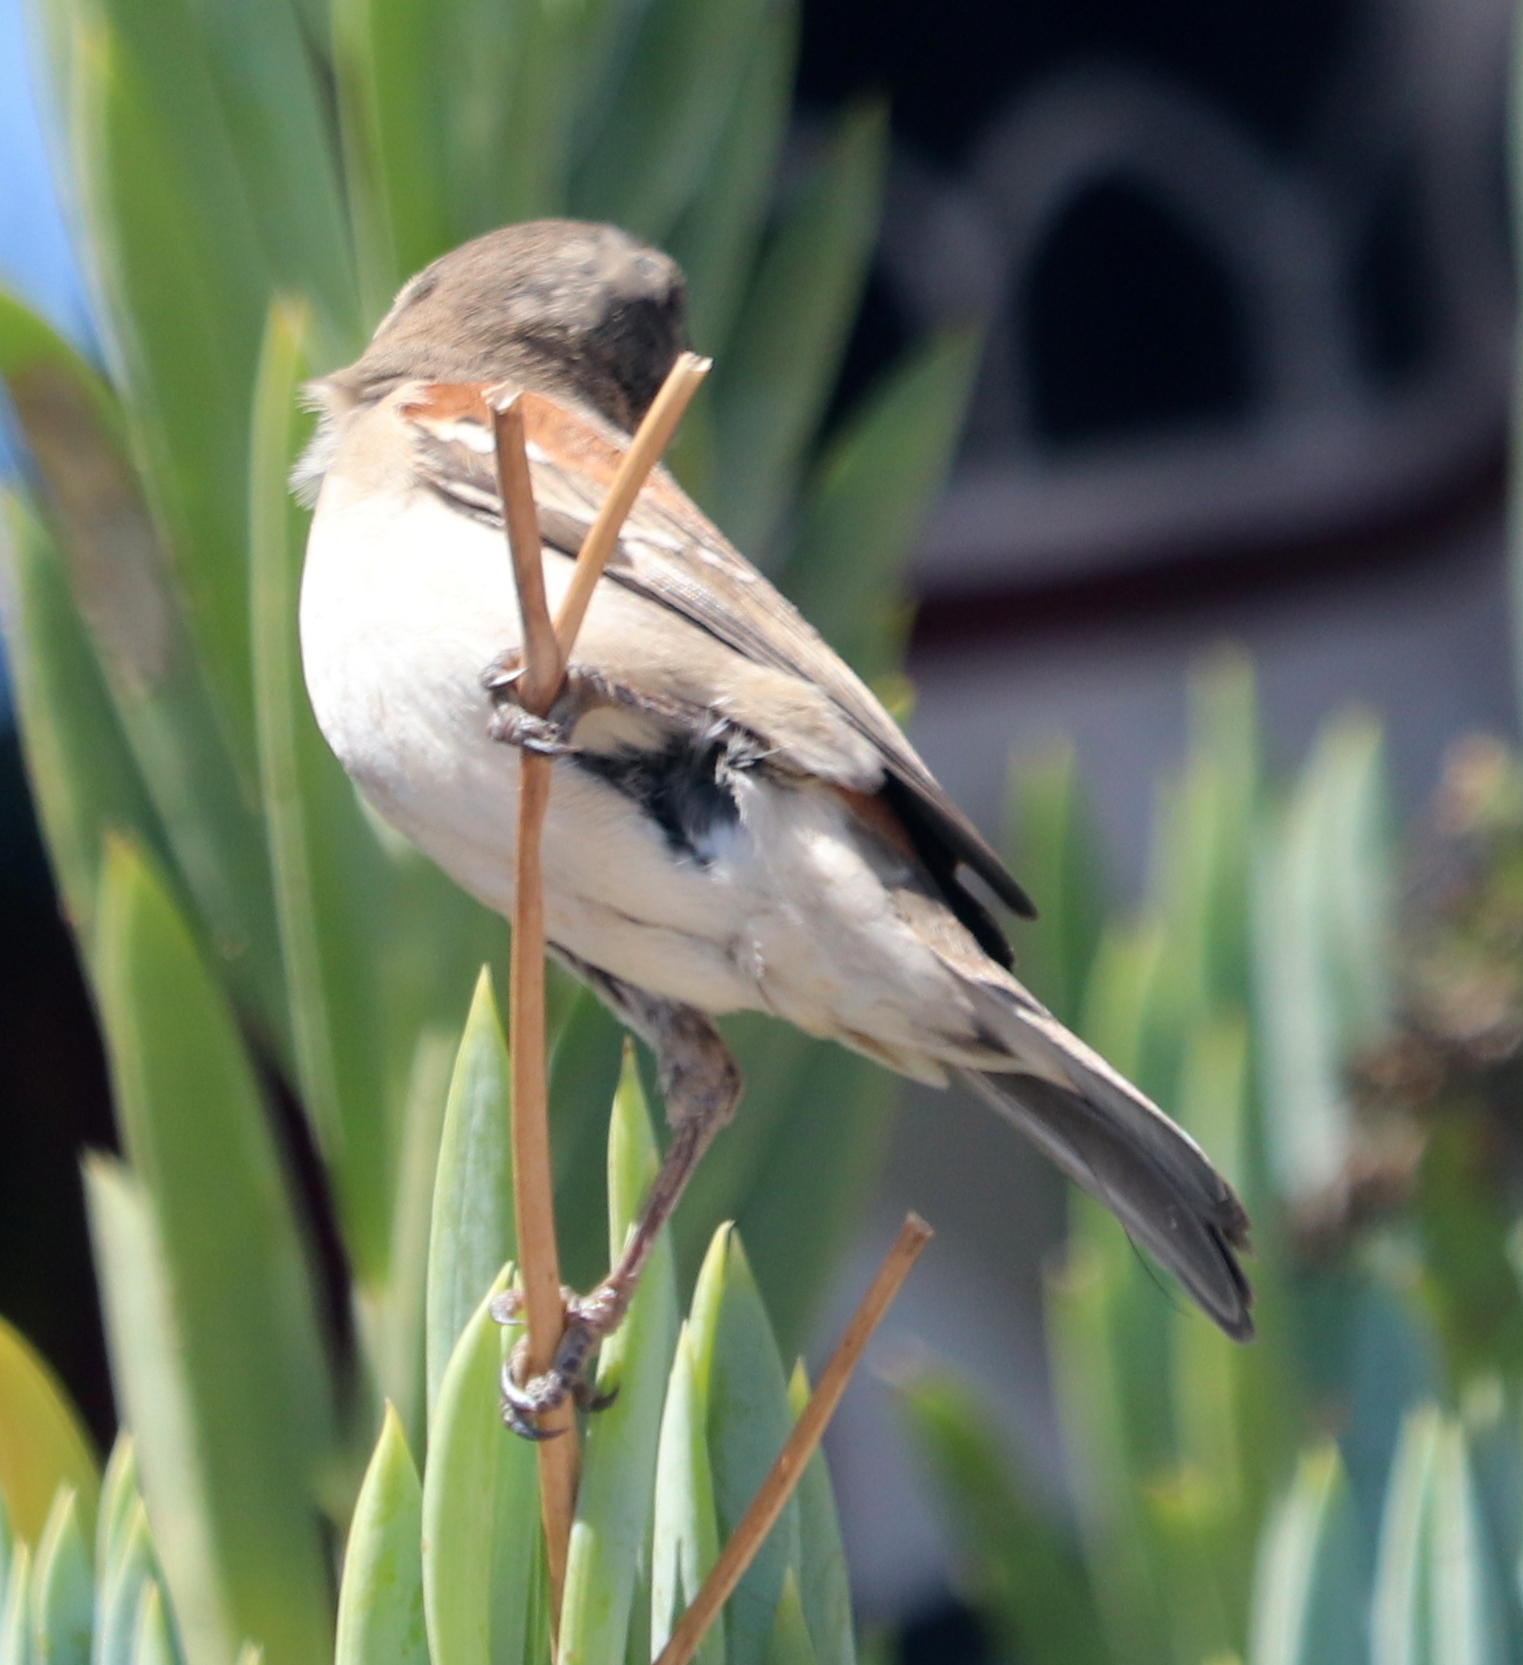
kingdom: Animalia
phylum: Chordata
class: Aves
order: Passeriformes
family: Passeridae
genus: Passer
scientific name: Passer melanurus
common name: Cape sparrow
